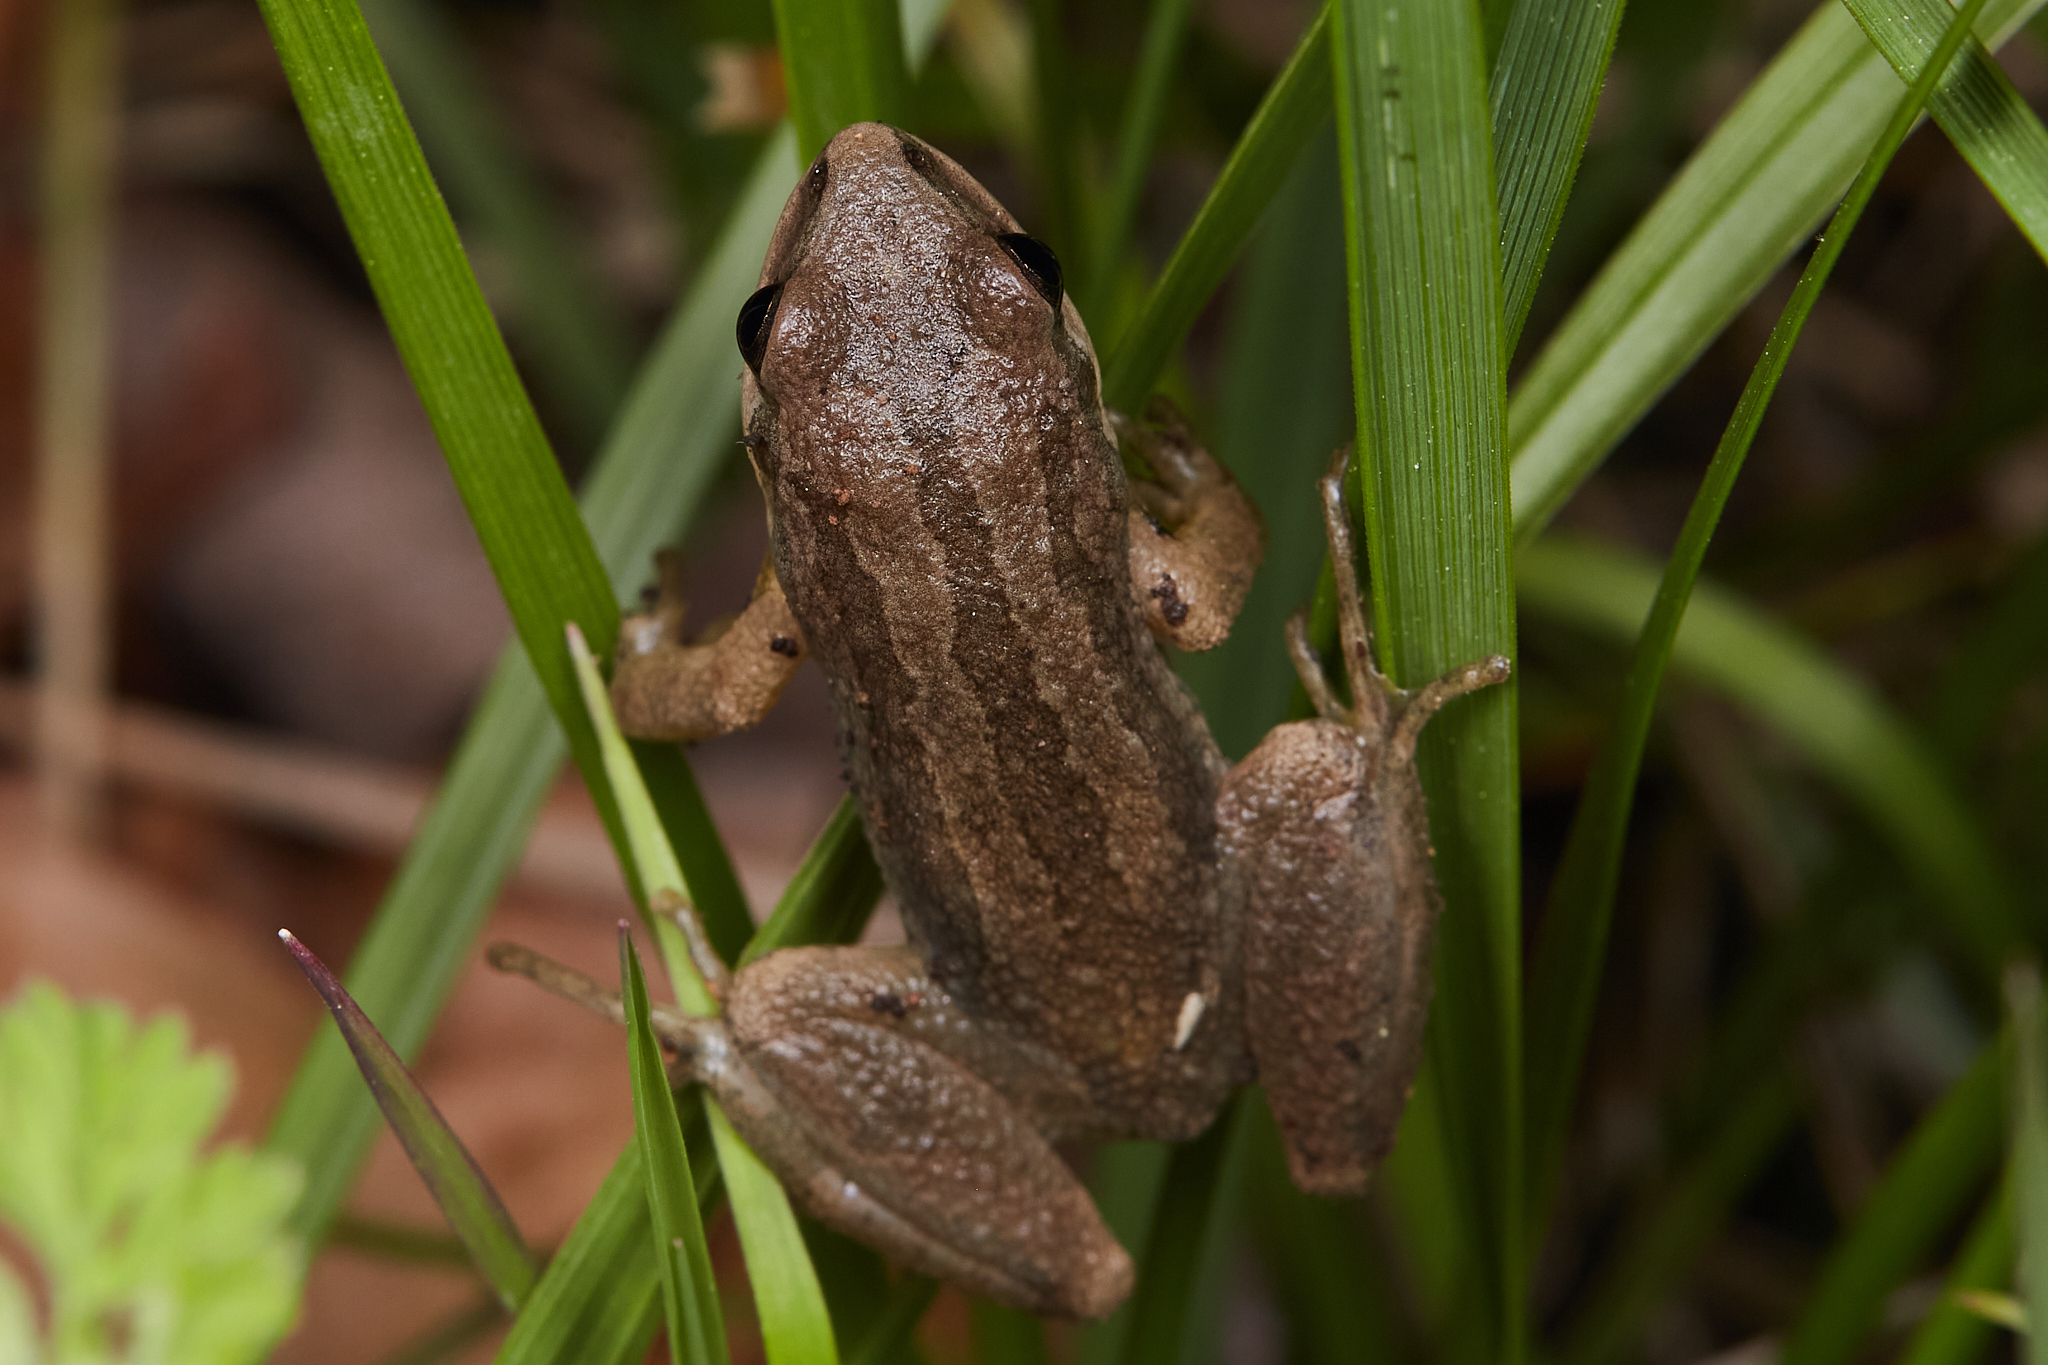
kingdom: Animalia
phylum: Chordata
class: Amphibia
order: Anura
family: Hylidae
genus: Pseudacris
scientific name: Pseudacris triseriata
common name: Western chorus frog
